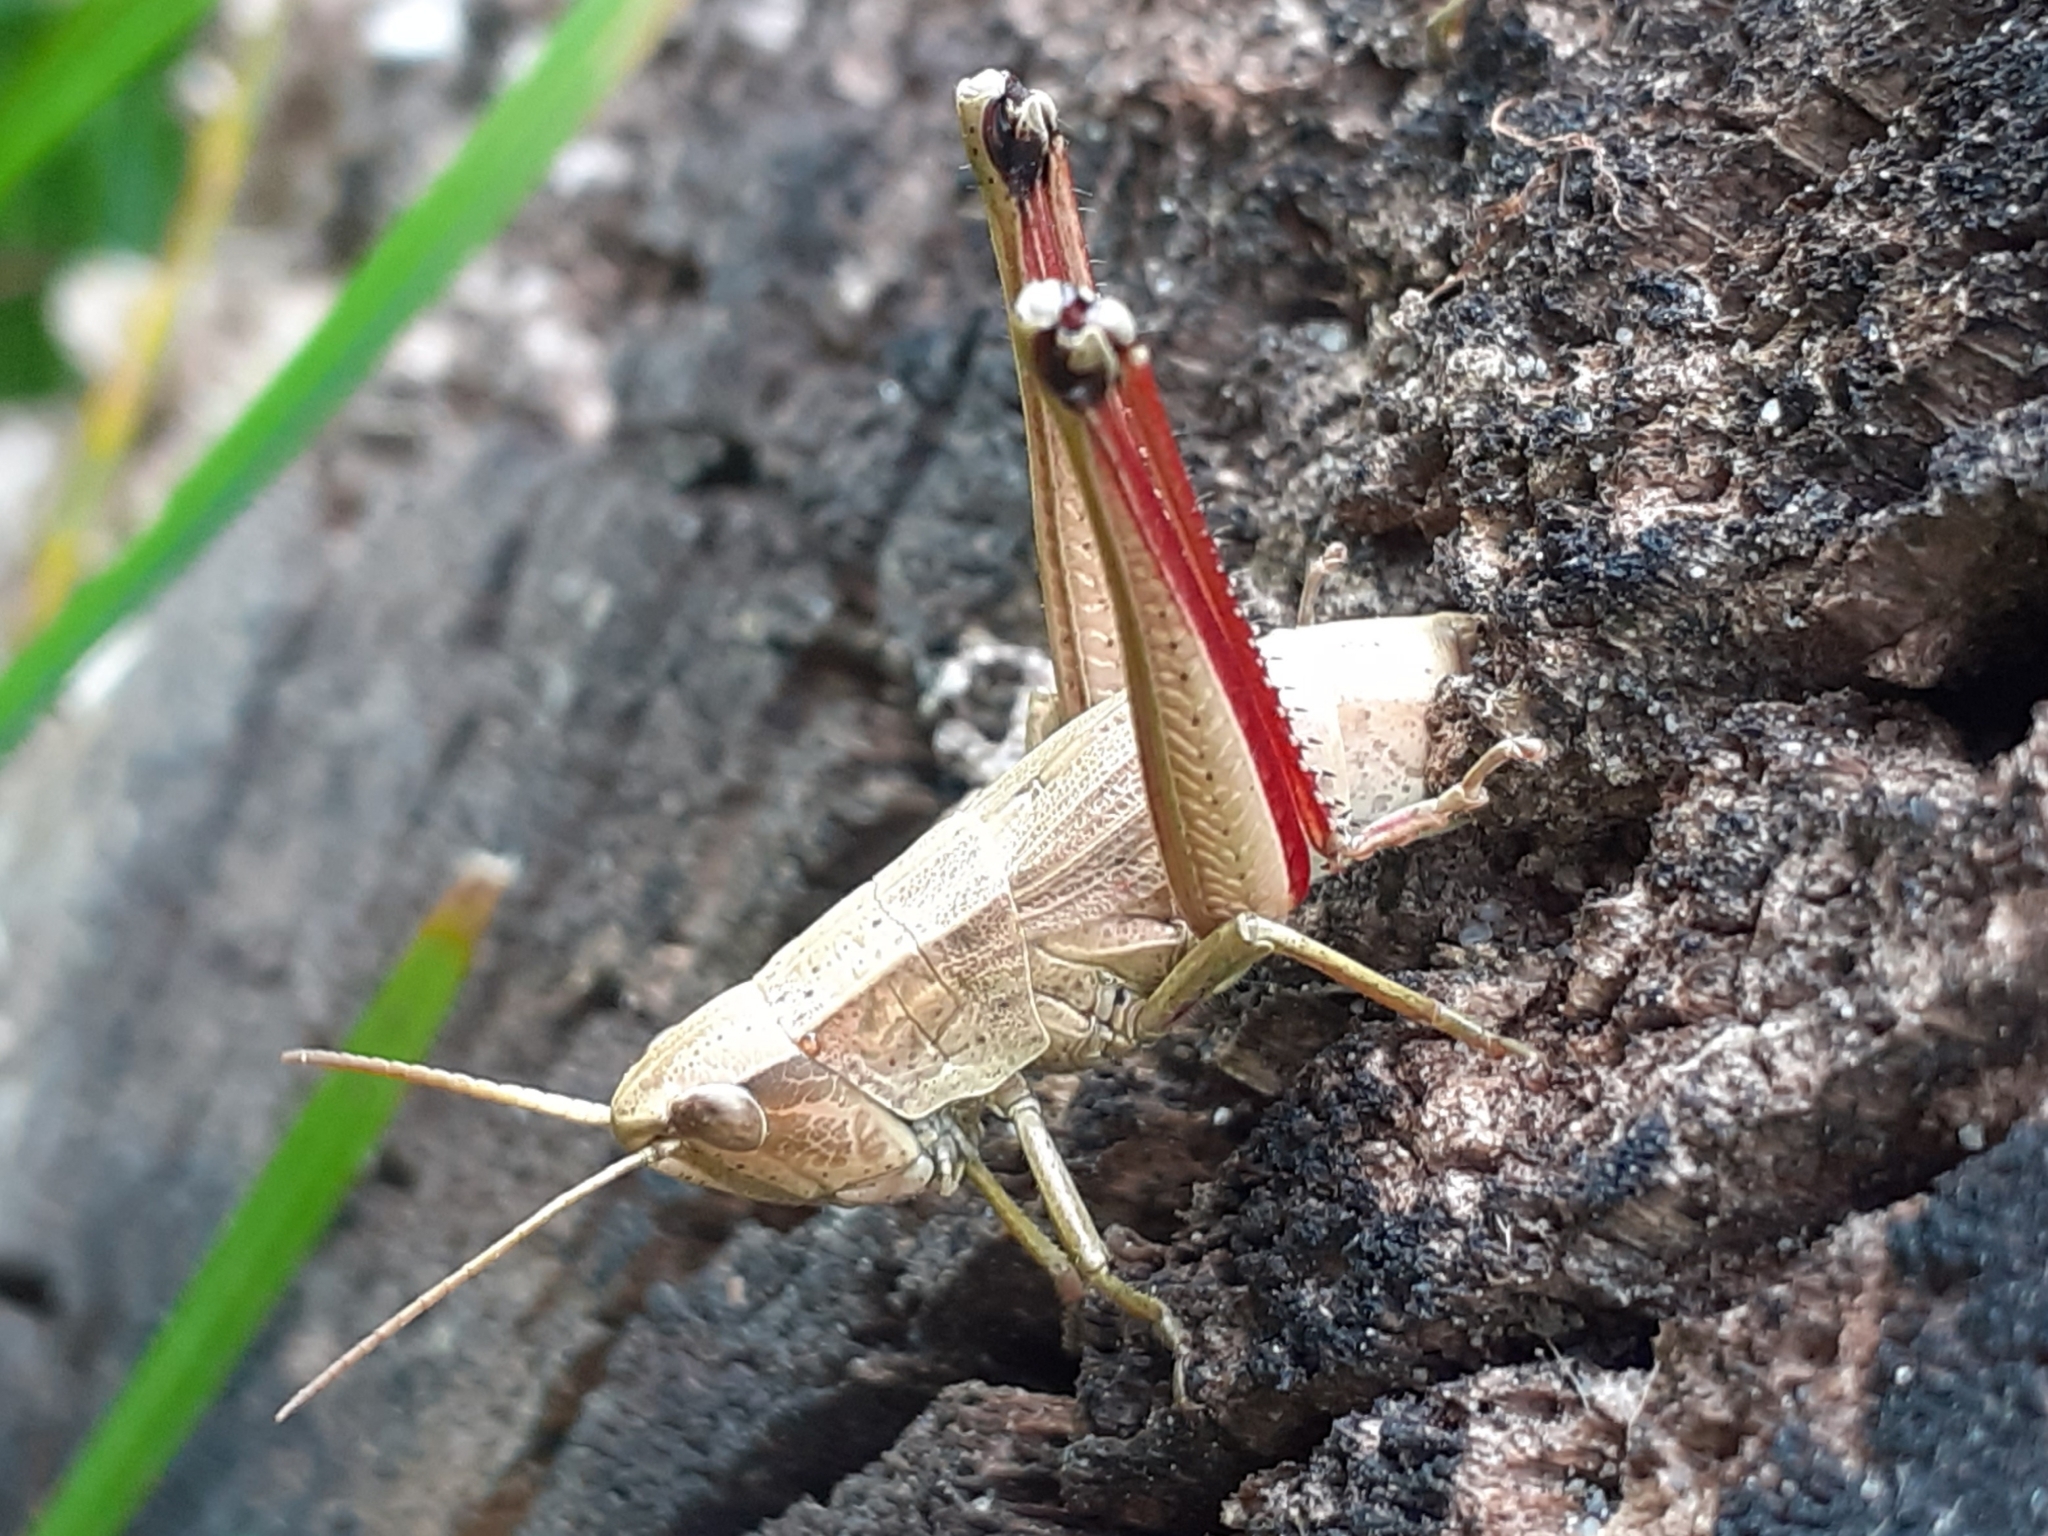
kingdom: Animalia
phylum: Arthropoda
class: Insecta
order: Orthoptera
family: Acrididae
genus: Chrysochraon
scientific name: Chrysochraon dispar
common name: Large gold grasshopper
